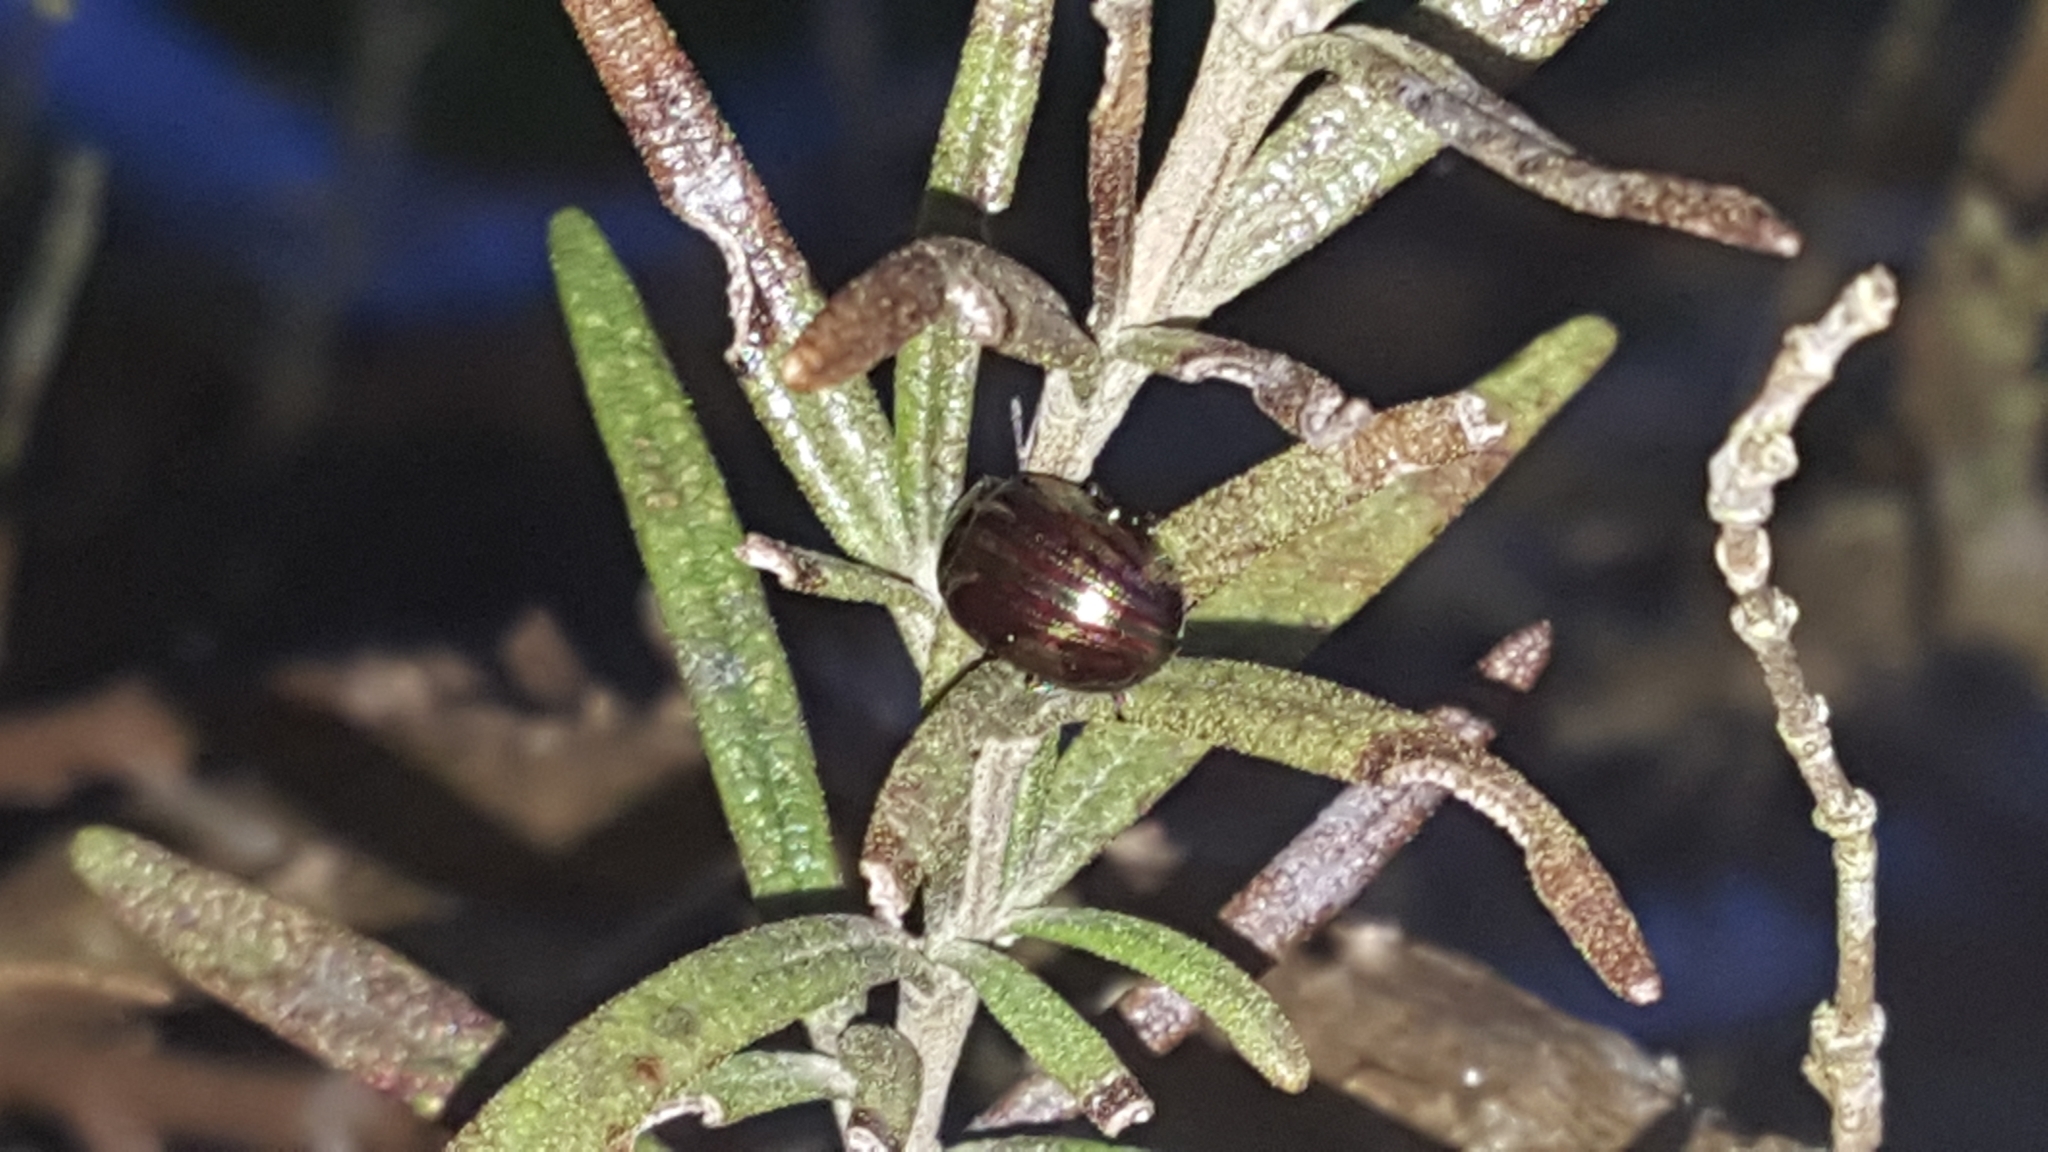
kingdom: Animalia
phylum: Arthropoda
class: Insecta
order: Coleoptera
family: Chrysomelidae
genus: Chrysolina
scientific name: Chrysolina americana
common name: Rosemary beetle
